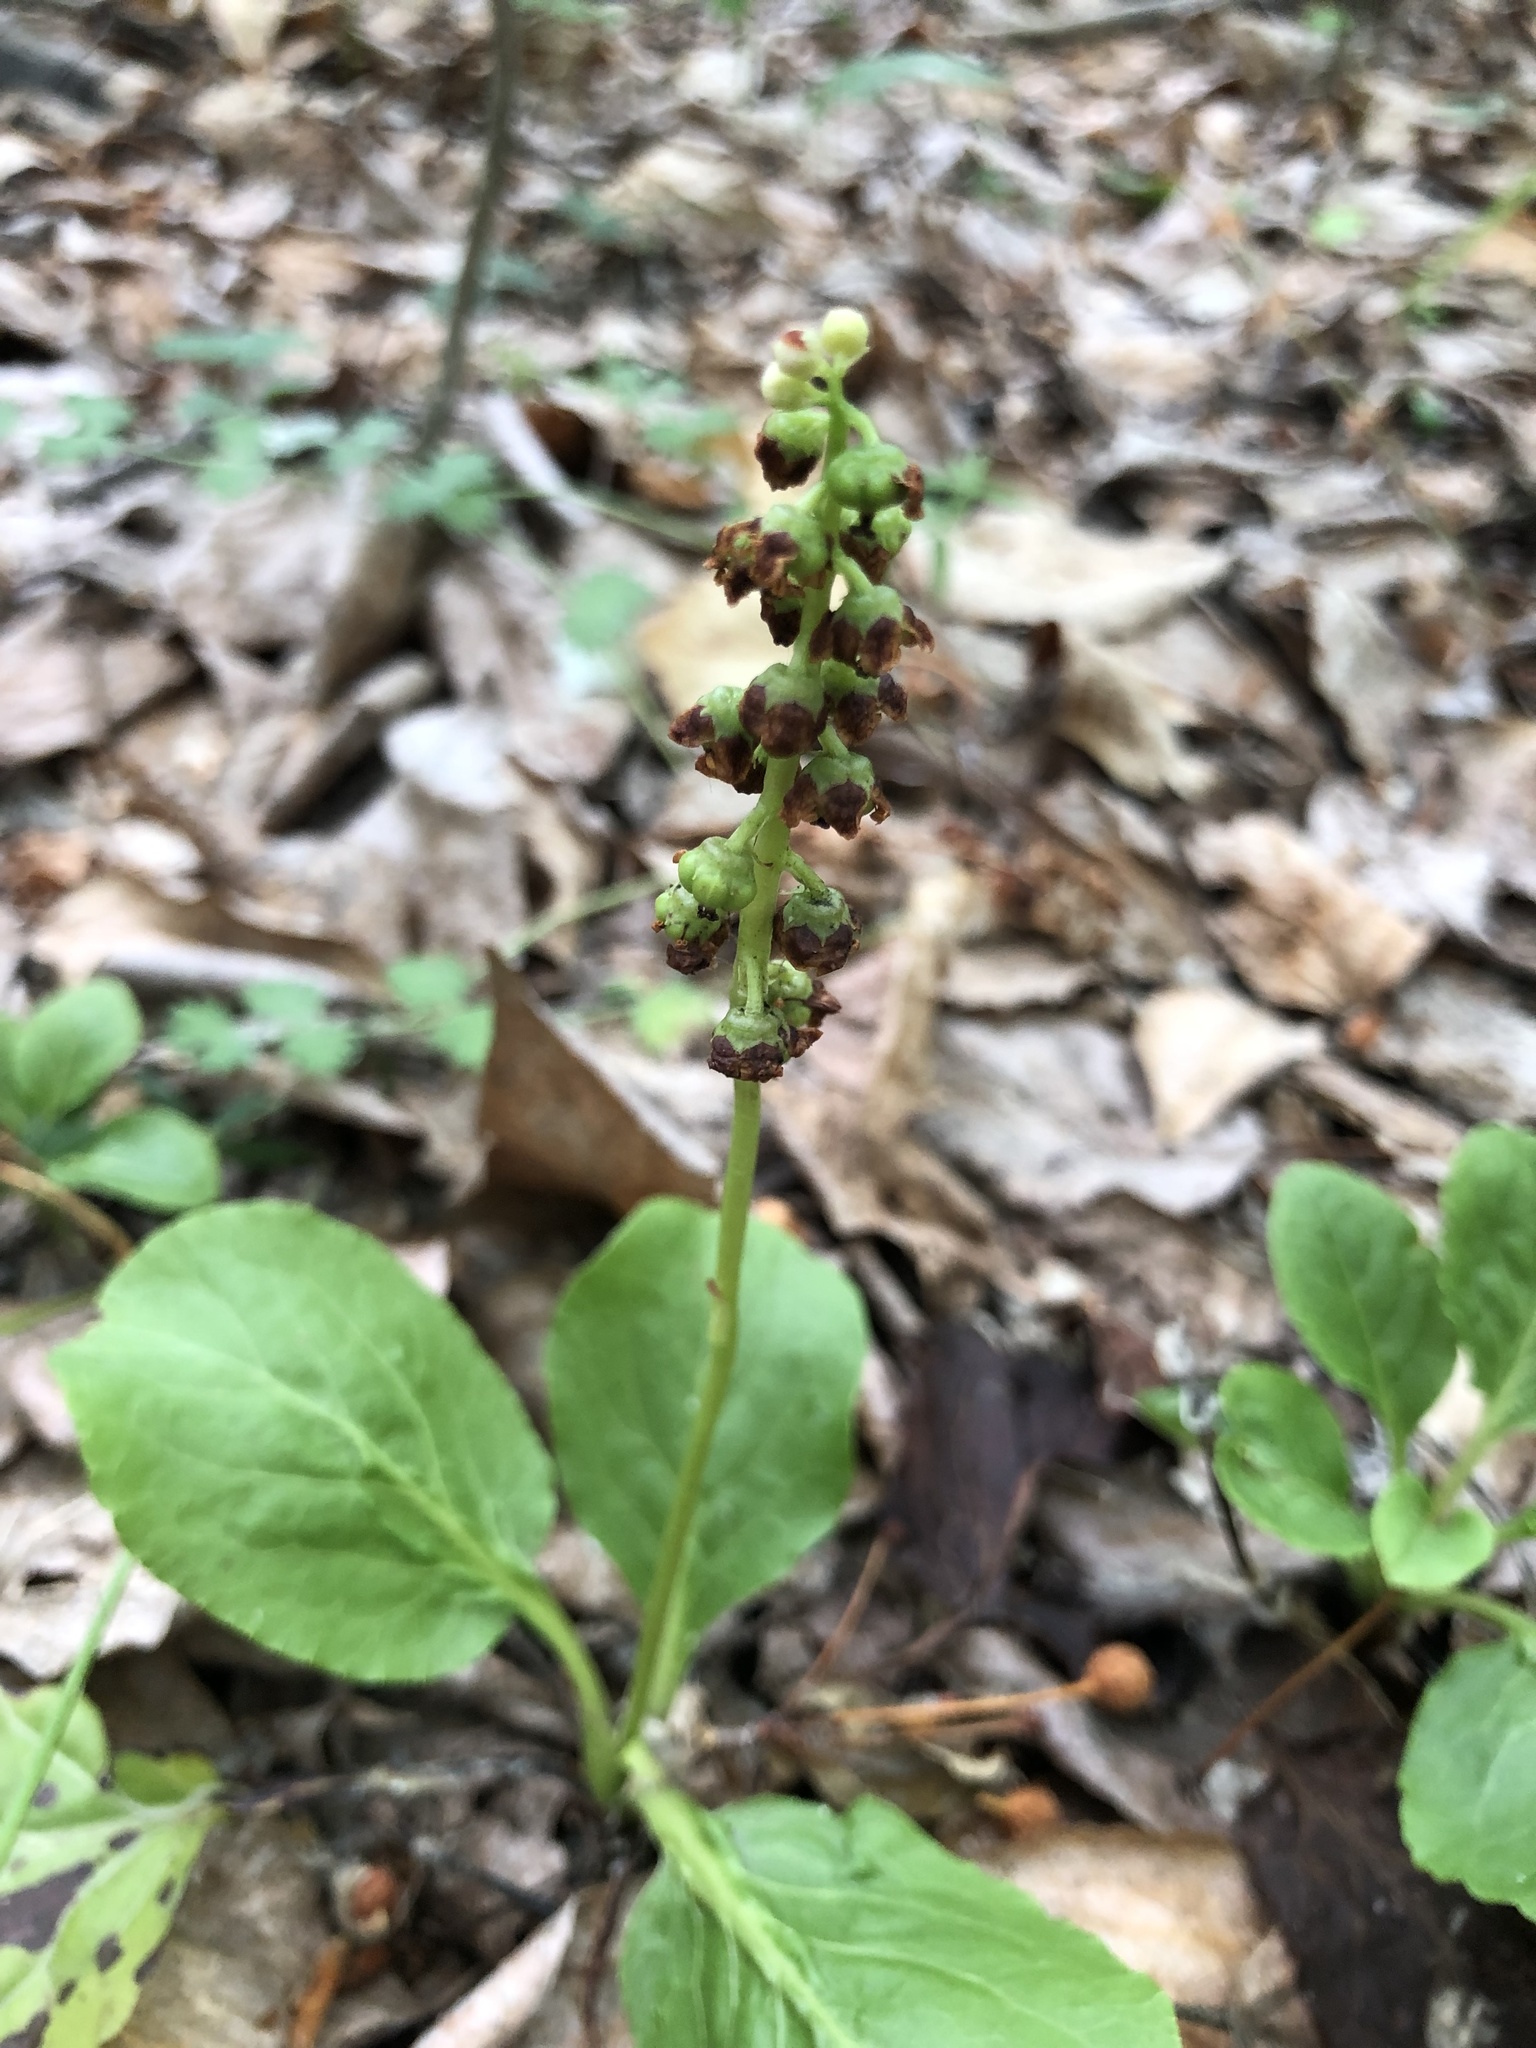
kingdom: Plantae
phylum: Tracheophyta
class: Magnoliopsida
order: Ericales
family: Ericaceae
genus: Pyrola
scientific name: Pyrola minor
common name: Common wintergreen
